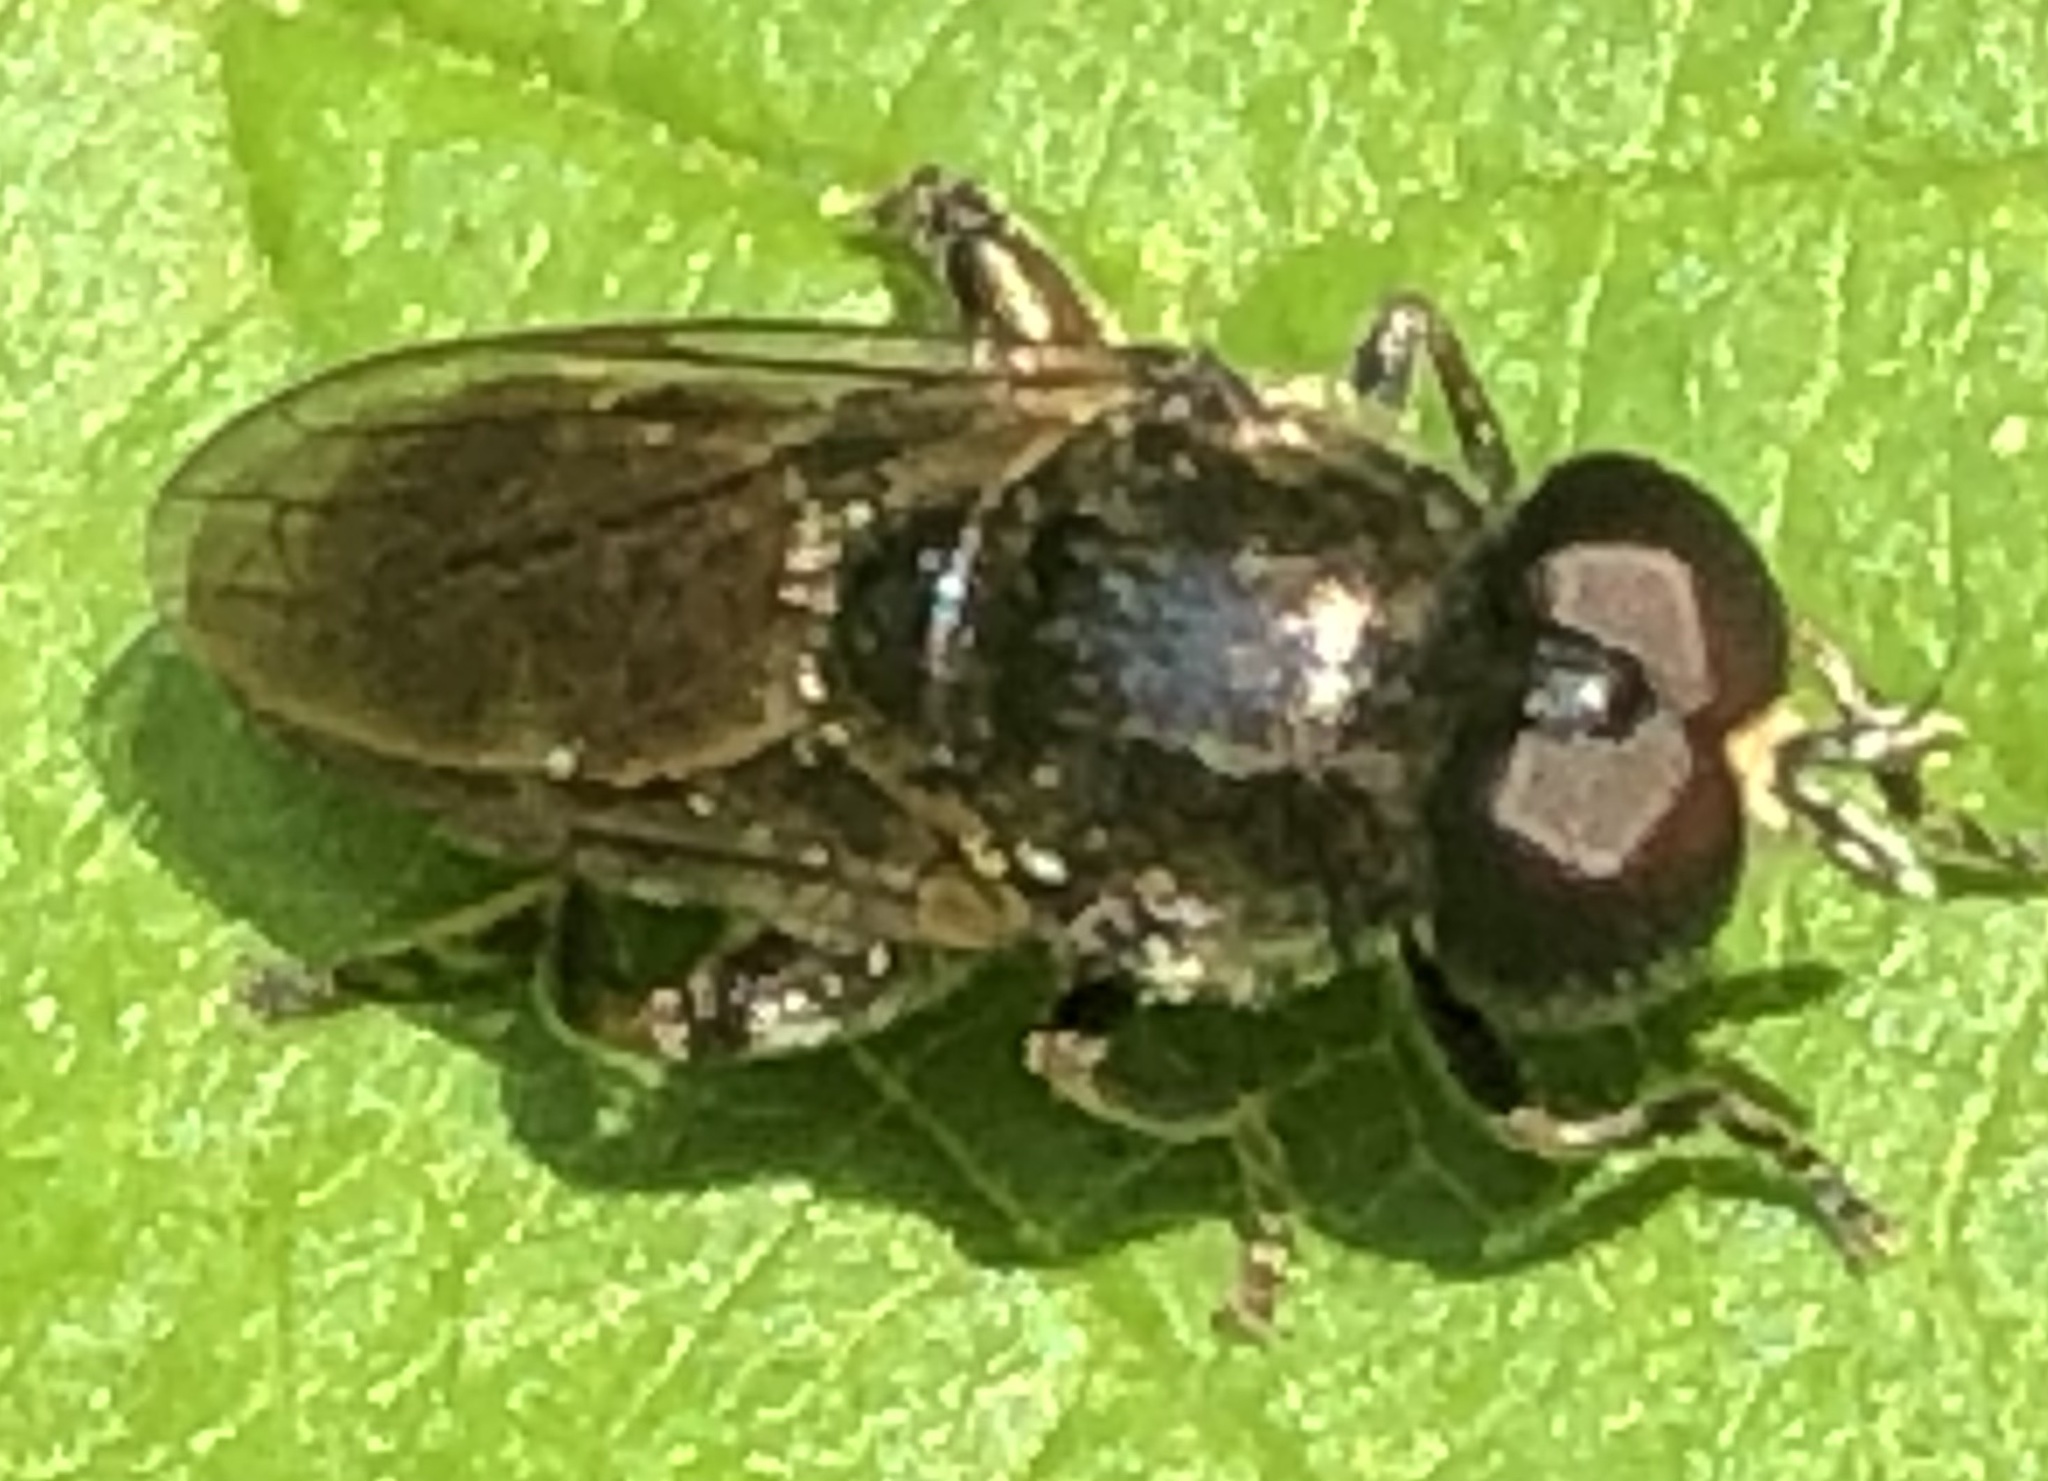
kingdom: Animalia
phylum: Arthropoda
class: Insecta
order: Diptera
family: Syrphidae
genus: Eumerus
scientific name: Eumerus
